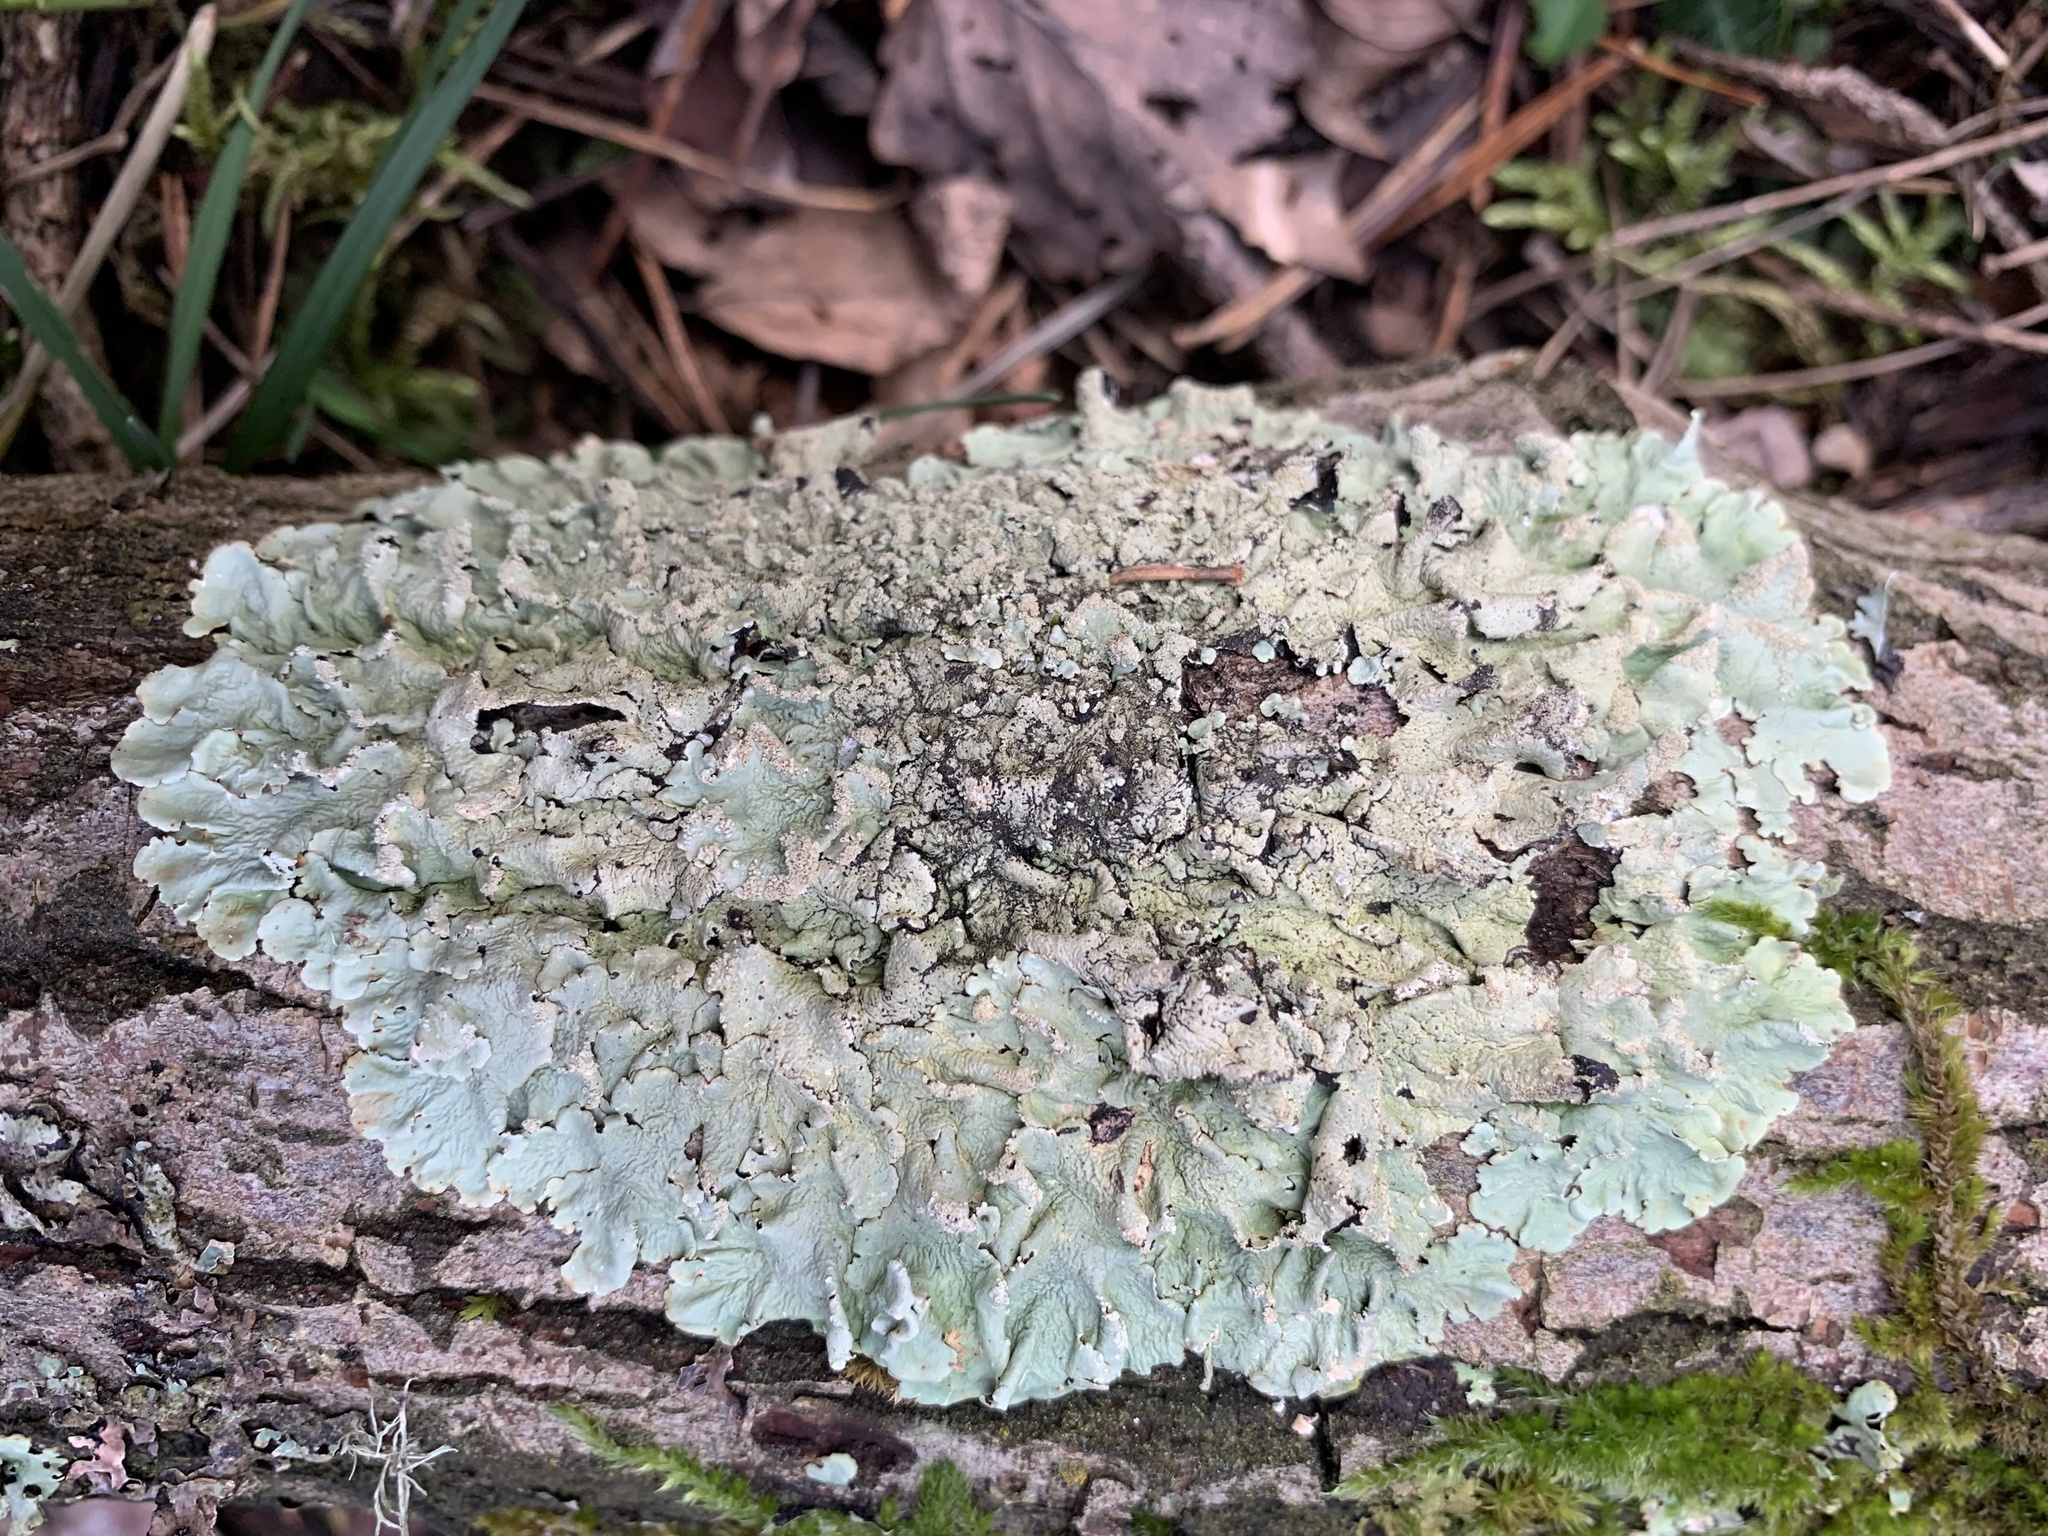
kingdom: Fungi
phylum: Ascomycota
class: Lecanoromycetes
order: Lecanorales
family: Parmeliaceae
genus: Flavoparmelia
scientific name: Flavoparmelia caperata
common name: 40-mile per hour lichen
